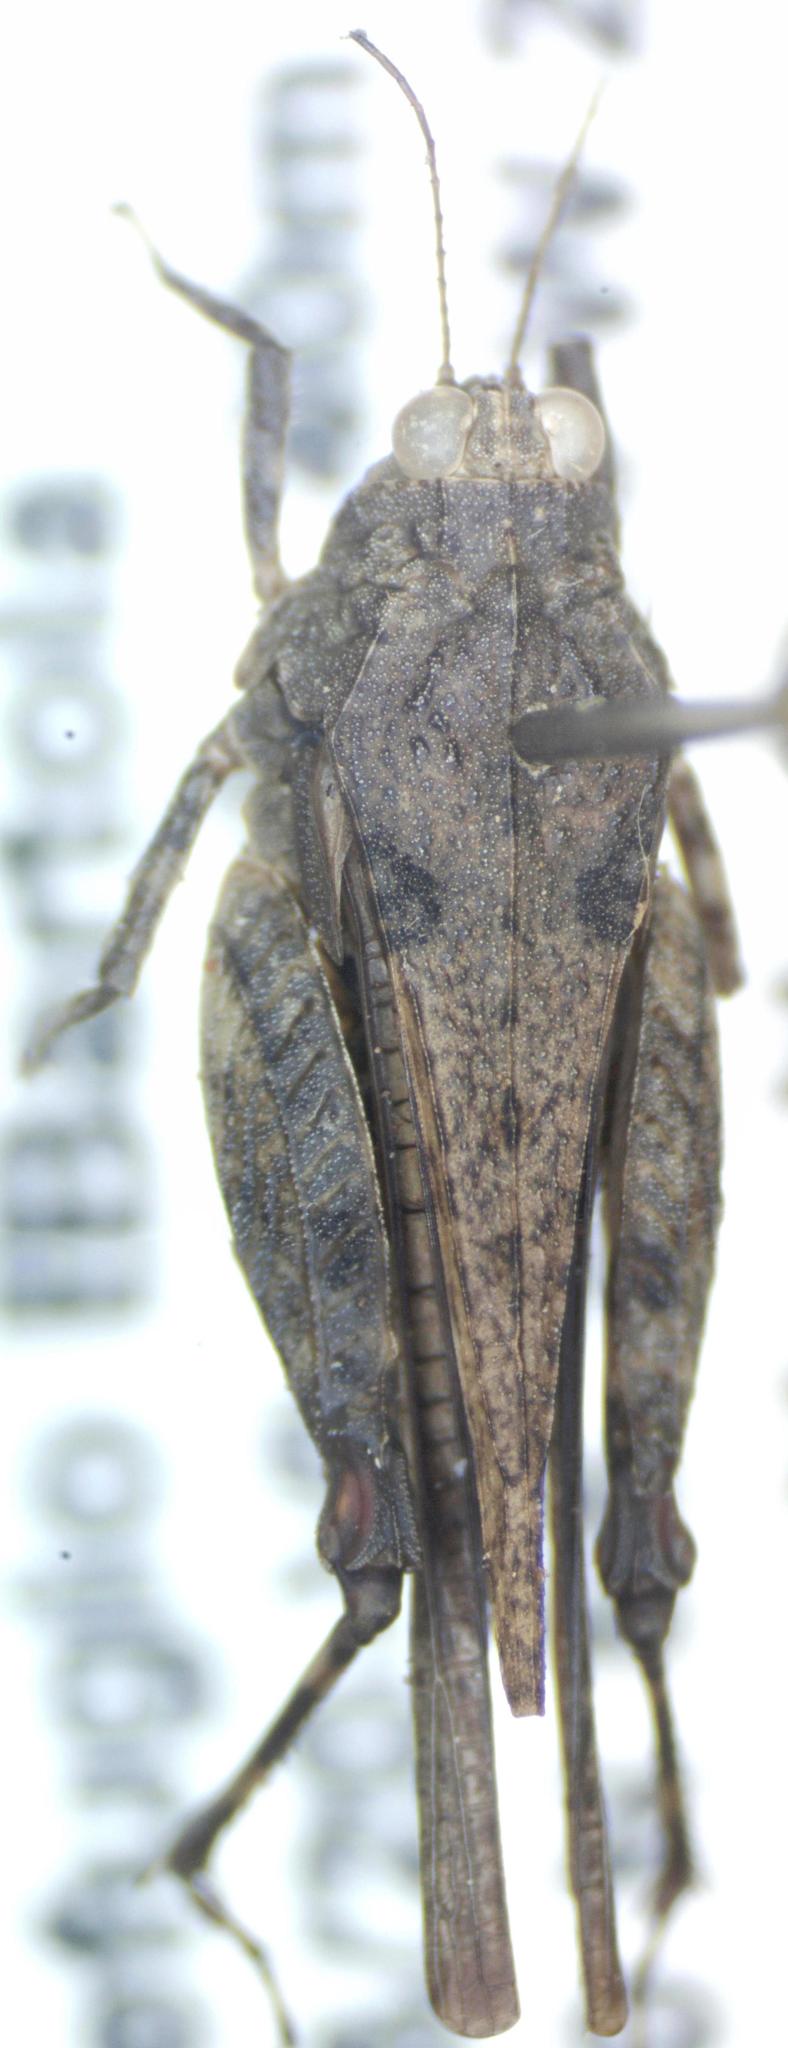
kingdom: Animalia
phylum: Arthropoda
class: Insecta
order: Orthoptera
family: Tetrigidae
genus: Paratettix
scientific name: Paratettix frey-gessnerii
